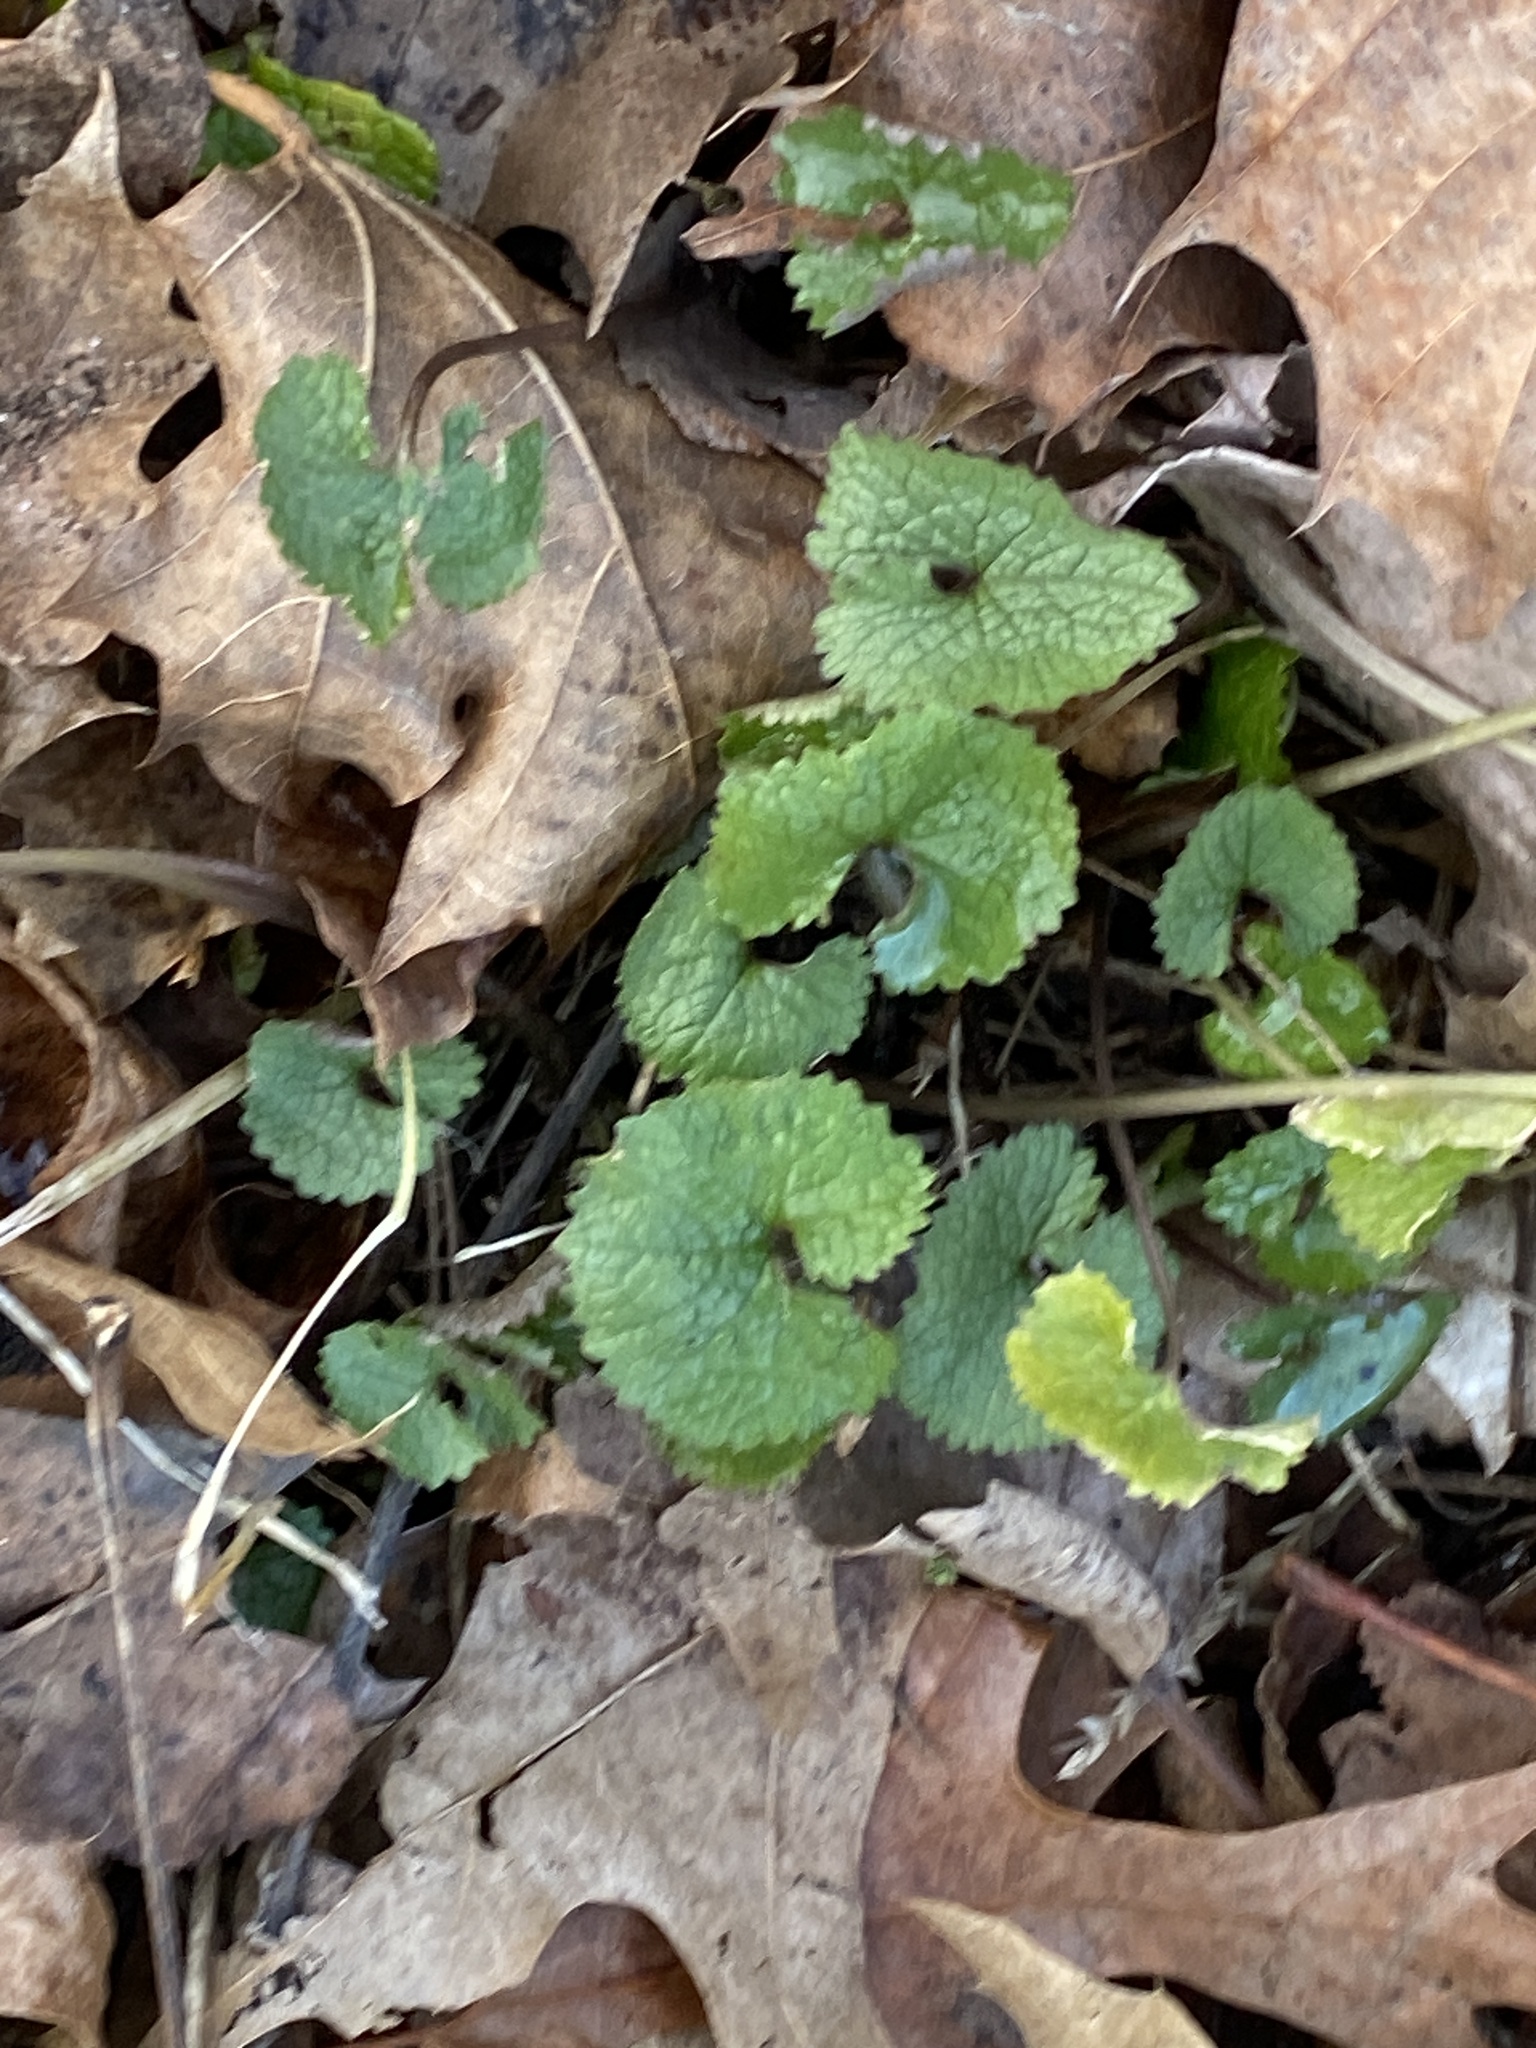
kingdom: Plantae
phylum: Tracheophyta
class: Magnoliopsida
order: Brassicales
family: Brassicaceae
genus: Alliaria
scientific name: Alliaria petiolata
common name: Garlic mustard
